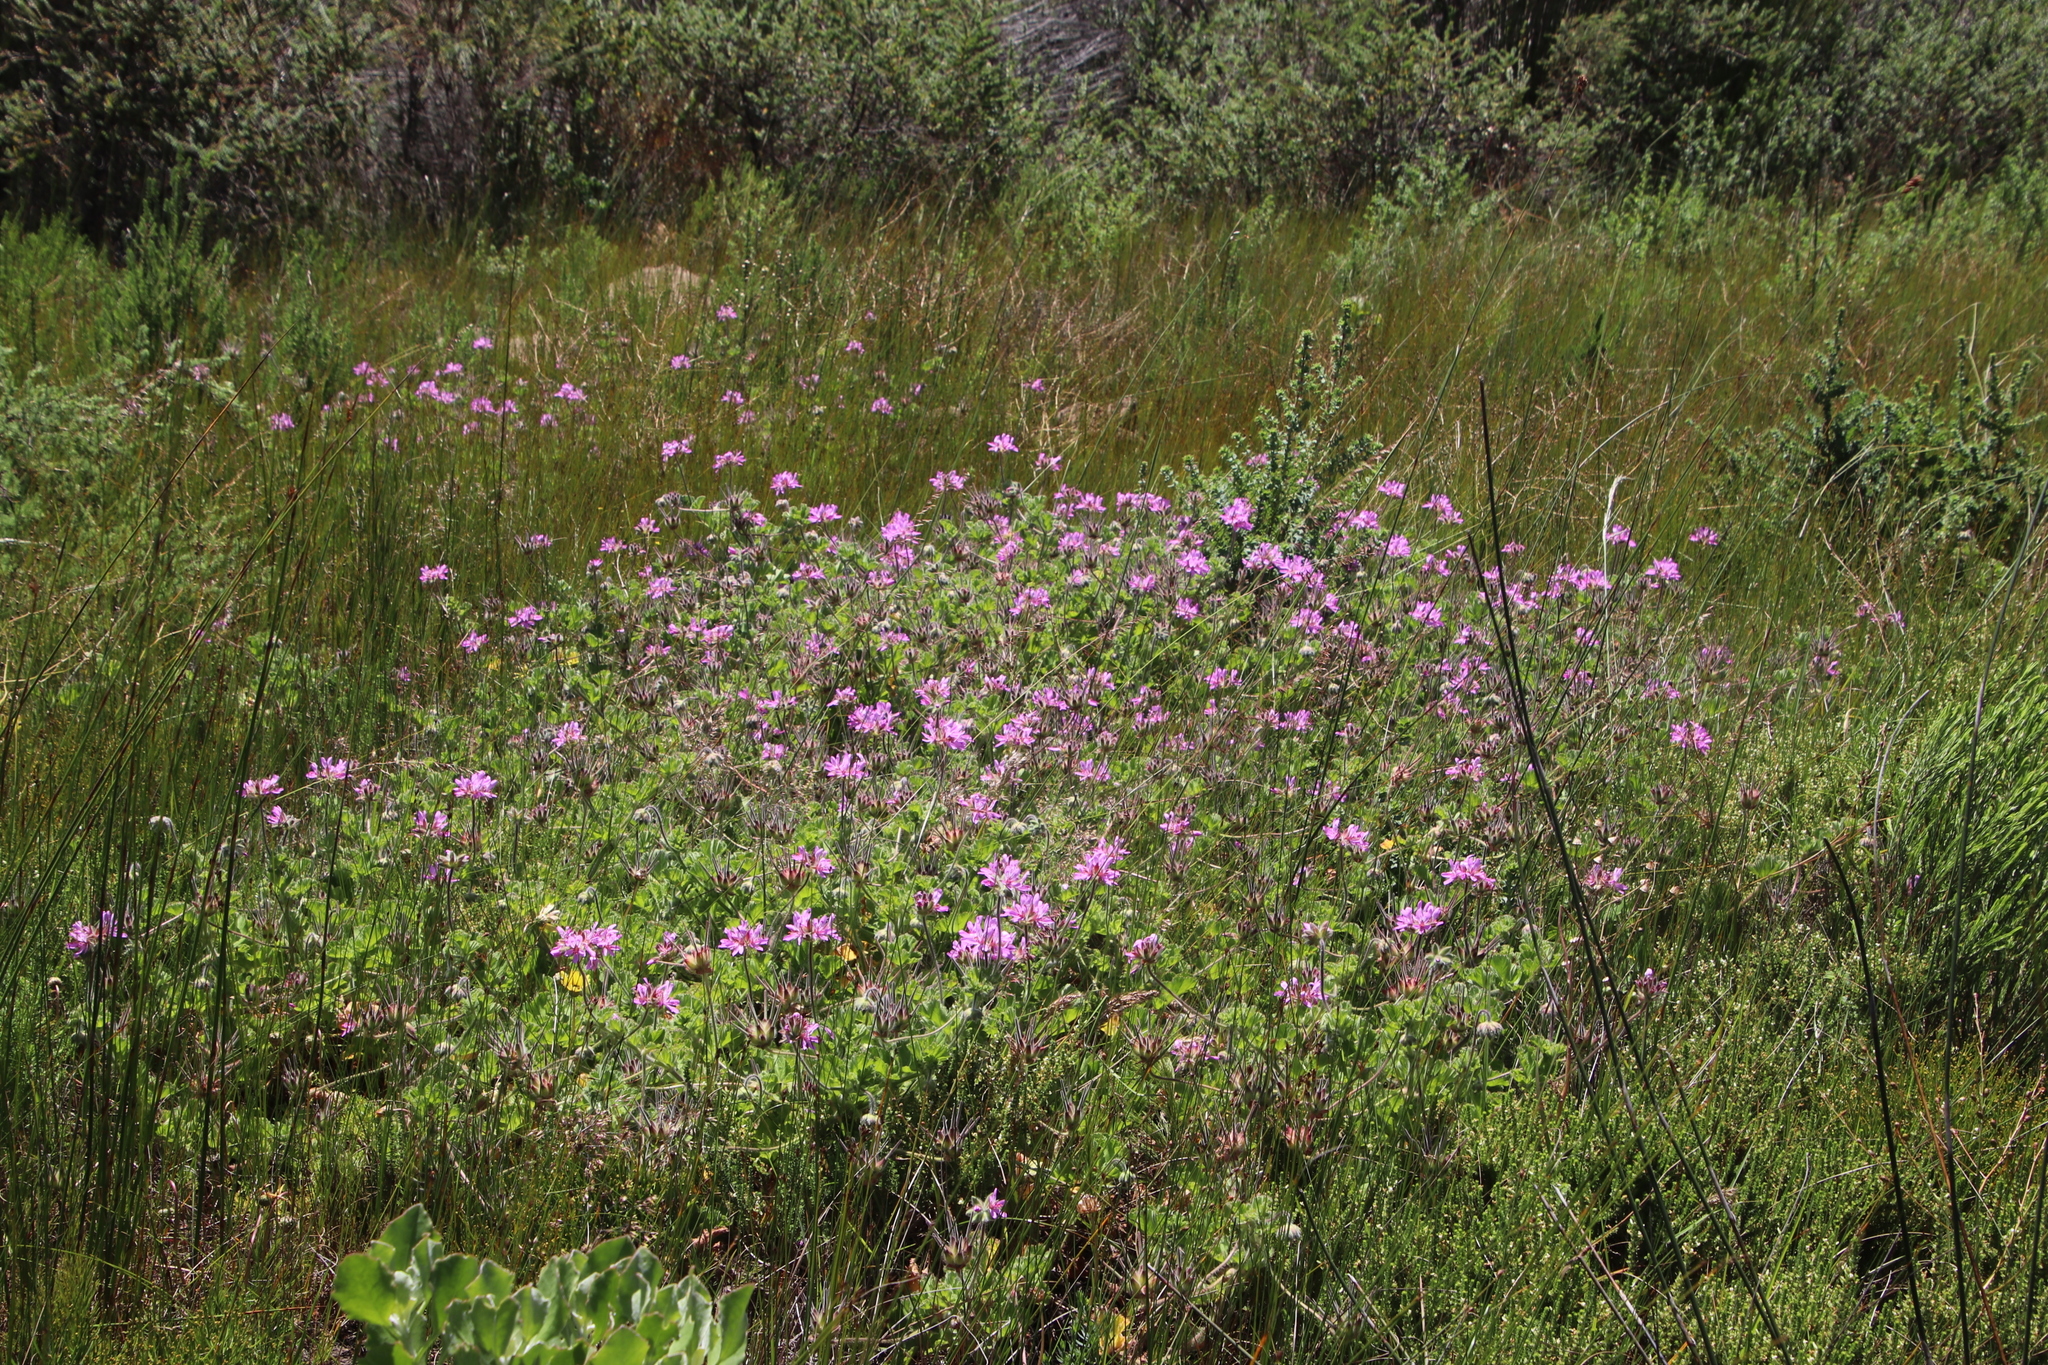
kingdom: Plantae
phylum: Tracheophyta
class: Magnoliopsida
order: Geraniales
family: Geraniaceae
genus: Pelargonium
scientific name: Pelargonium capitatum
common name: Rose scented geranium
